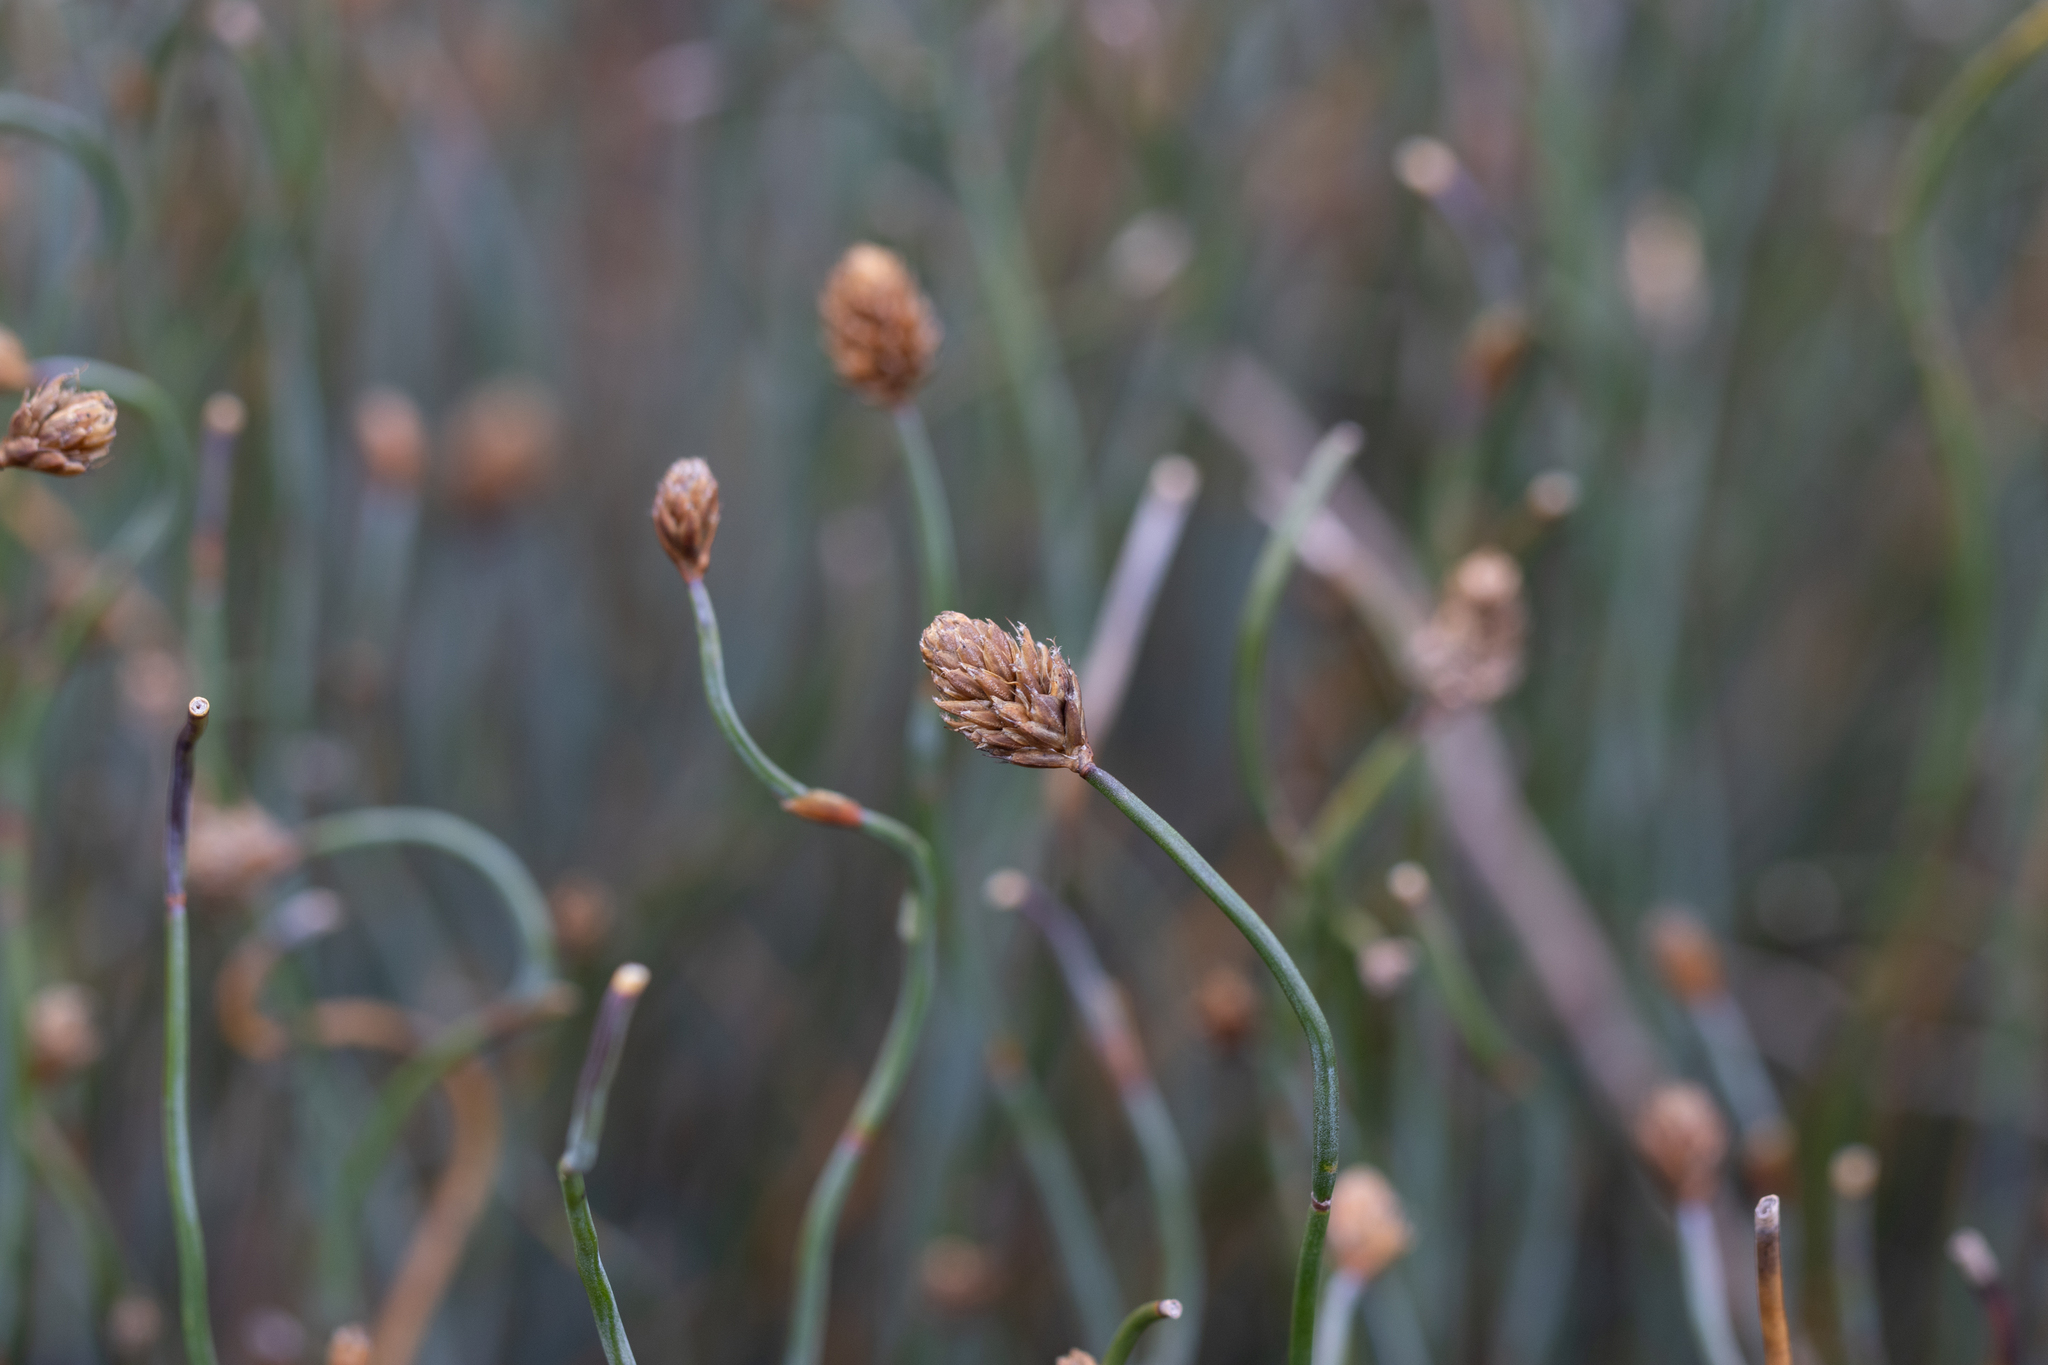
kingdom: Plantae
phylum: Tracheophyta
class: Liliopsida
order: Poales
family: Restionaceae
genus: Lepidobolus
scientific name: Lepidobolus drapetocoleus
